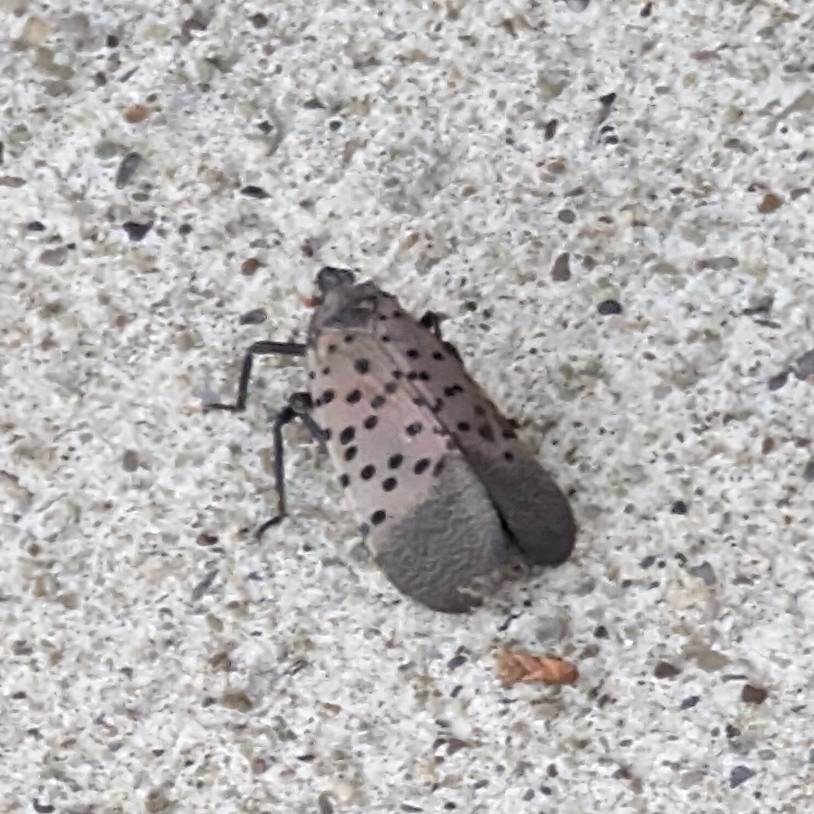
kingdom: Animalia
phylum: Arthropoda
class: Insecta
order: Hemiptera
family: Fulgoridae
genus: Lycorma
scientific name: Lycorma delicatula
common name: Spotted lanternfly
